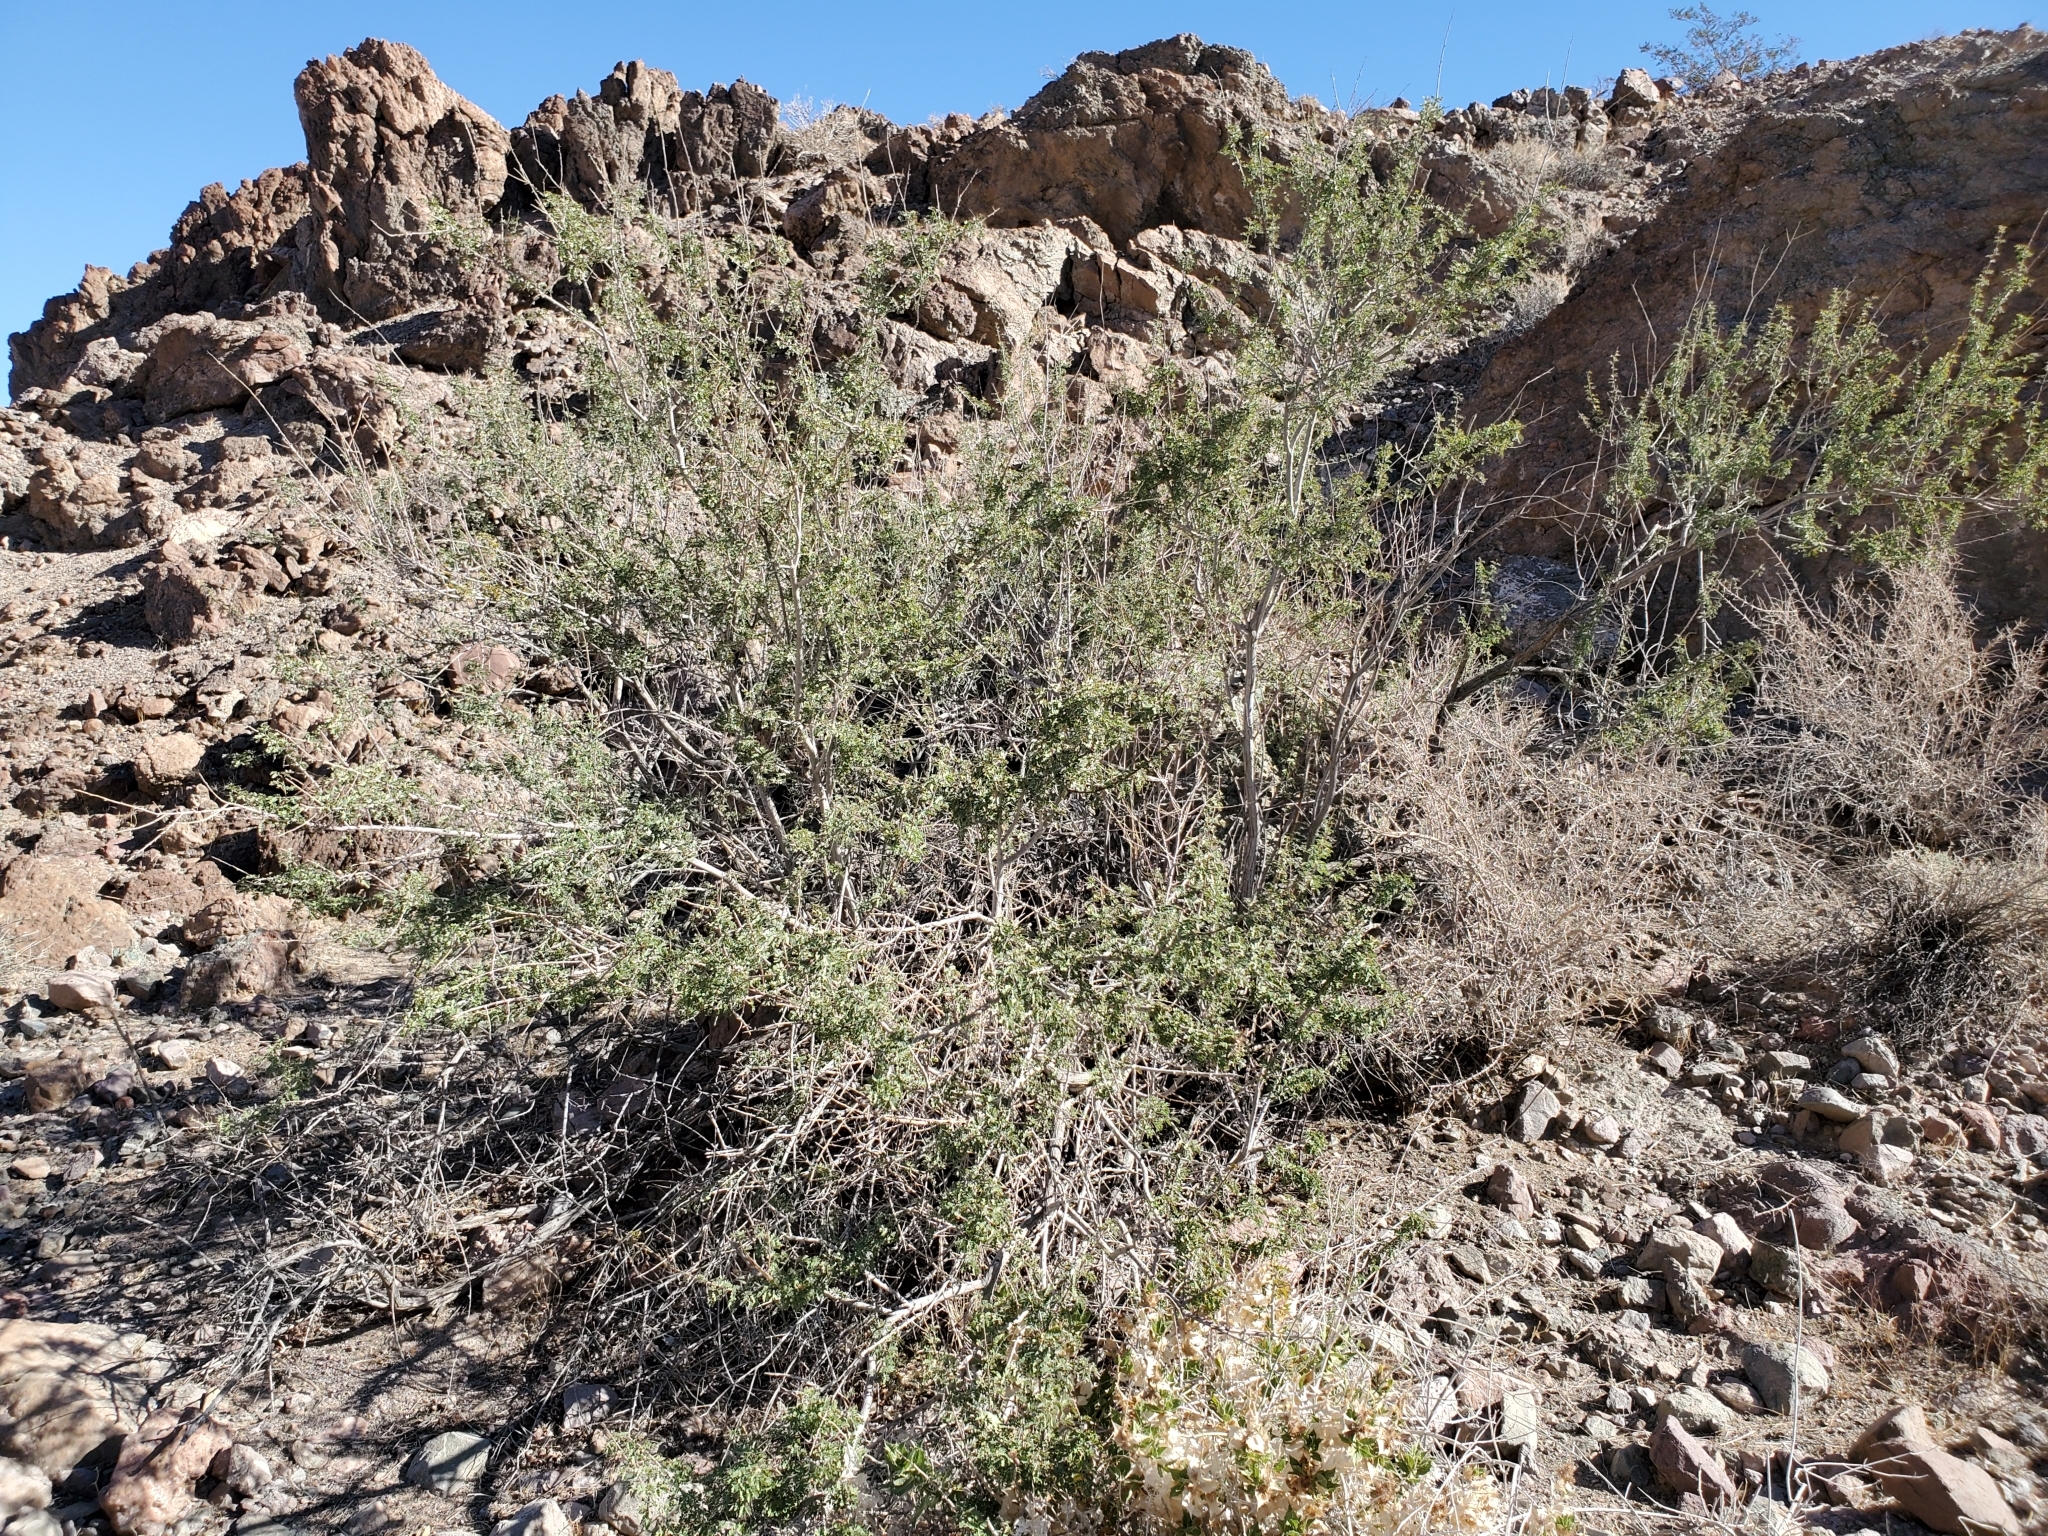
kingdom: Plantae
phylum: Tracheophyta
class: Magnoliopsida
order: Fabales
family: Fabaceae
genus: Senegalia
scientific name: Senegalia greggii
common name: Texas-mimosa
